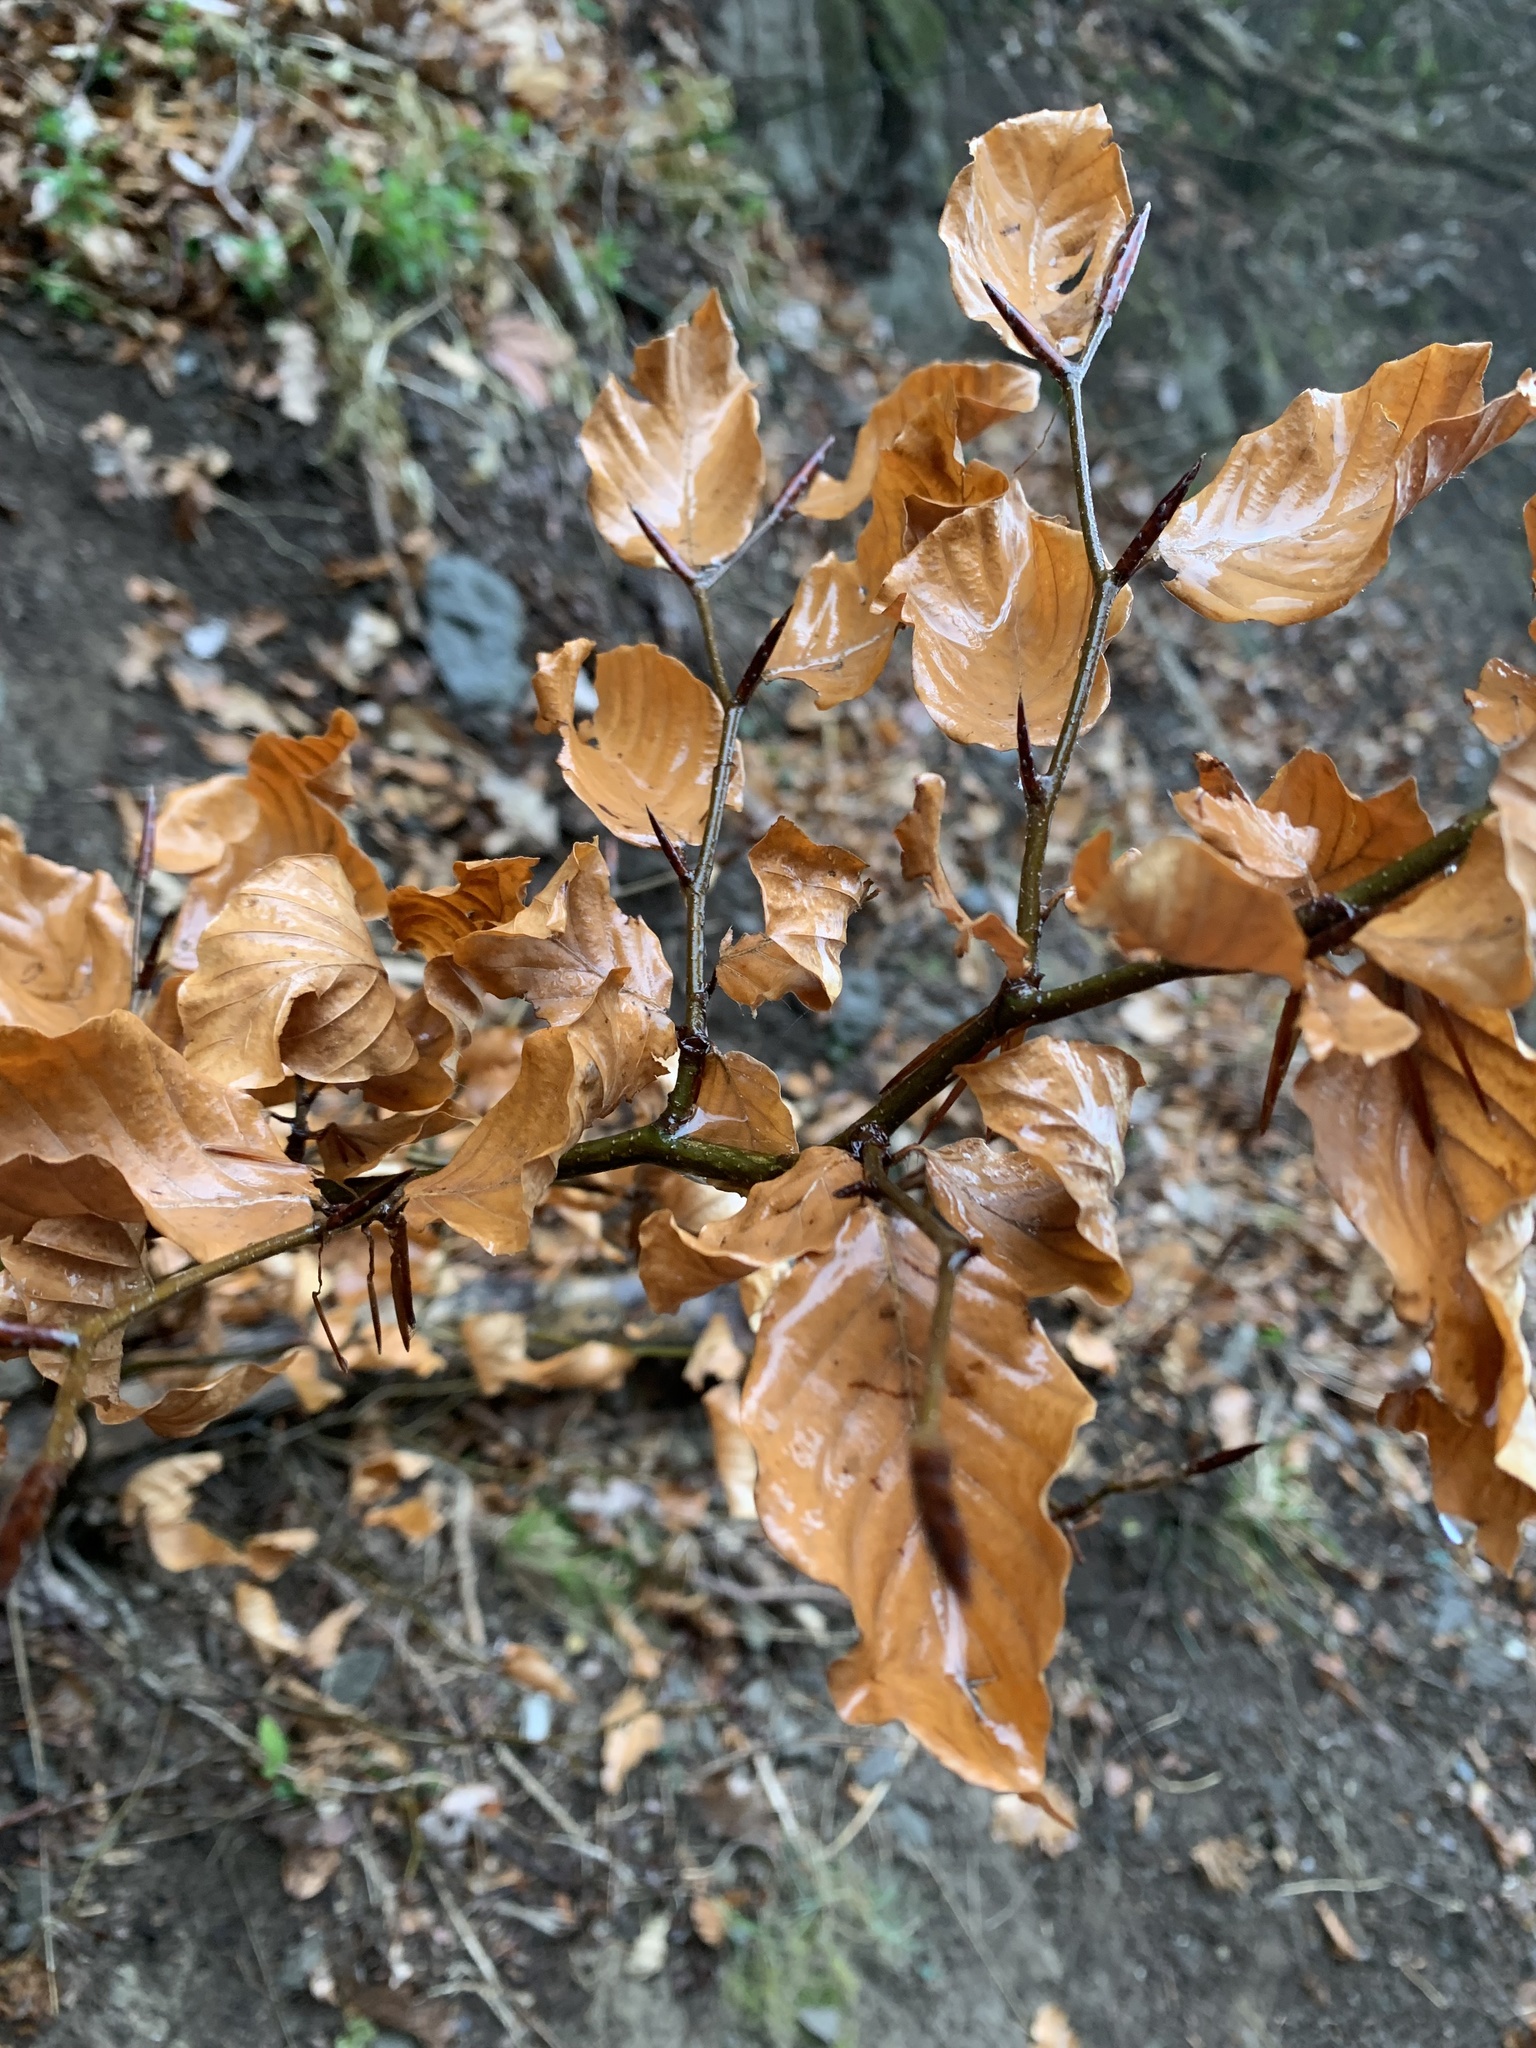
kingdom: Plantae
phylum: Tracheophyta
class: Magnoliopsida
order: Fagales
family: Fagaceae
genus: Fagus
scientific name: Fagus sylvatica
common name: Beech
